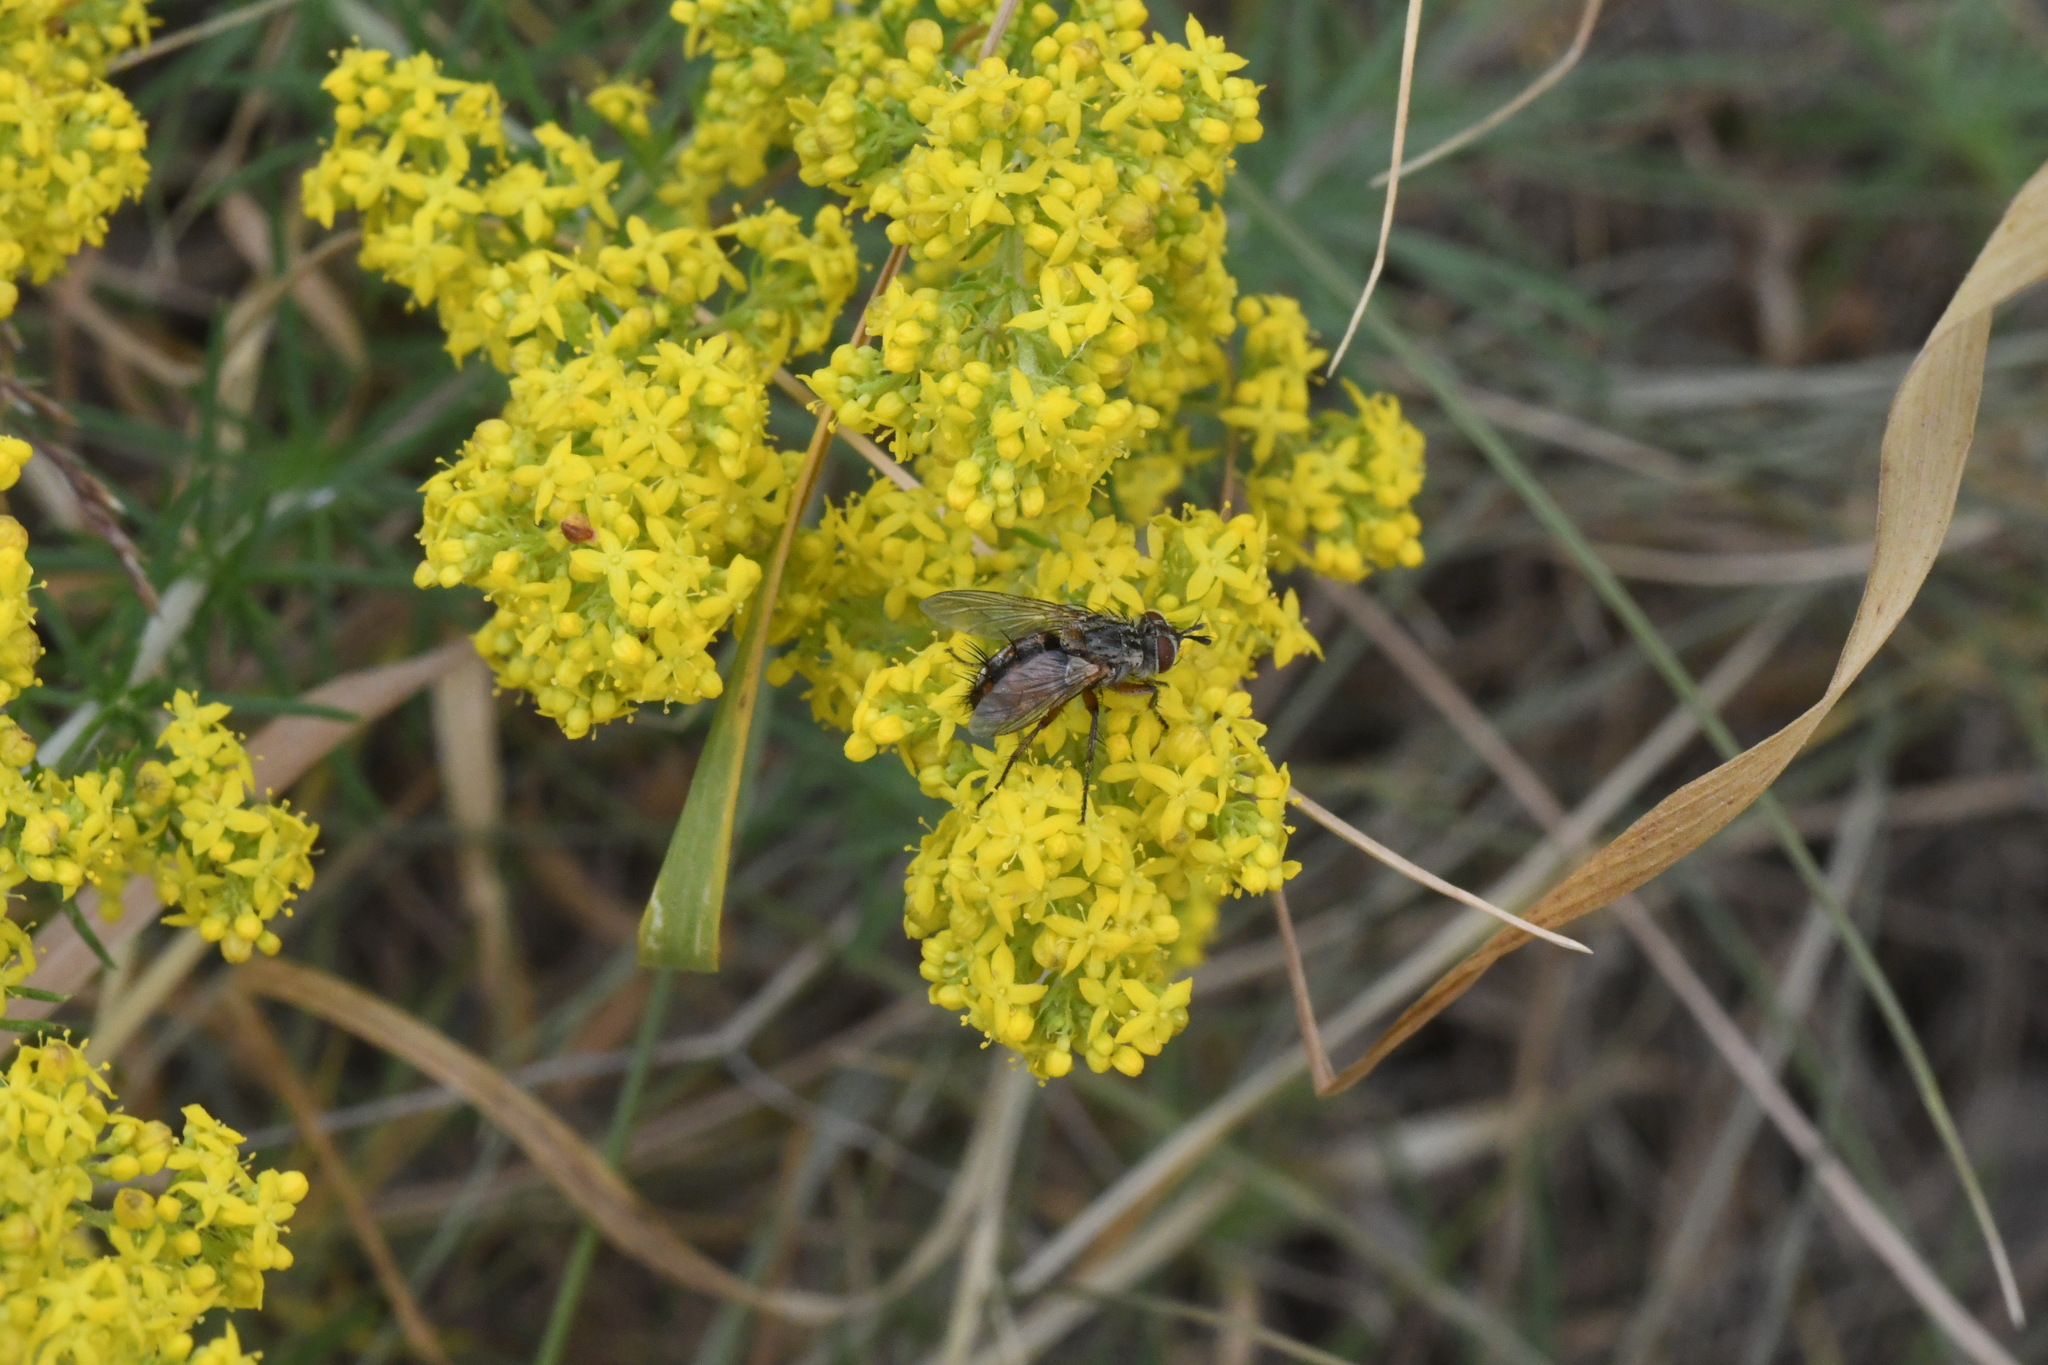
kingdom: Animalia
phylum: Arthropoda
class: Insecta
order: Diptera
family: Tachinidae
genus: Linnaemya
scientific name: Linnaemya vulpina
